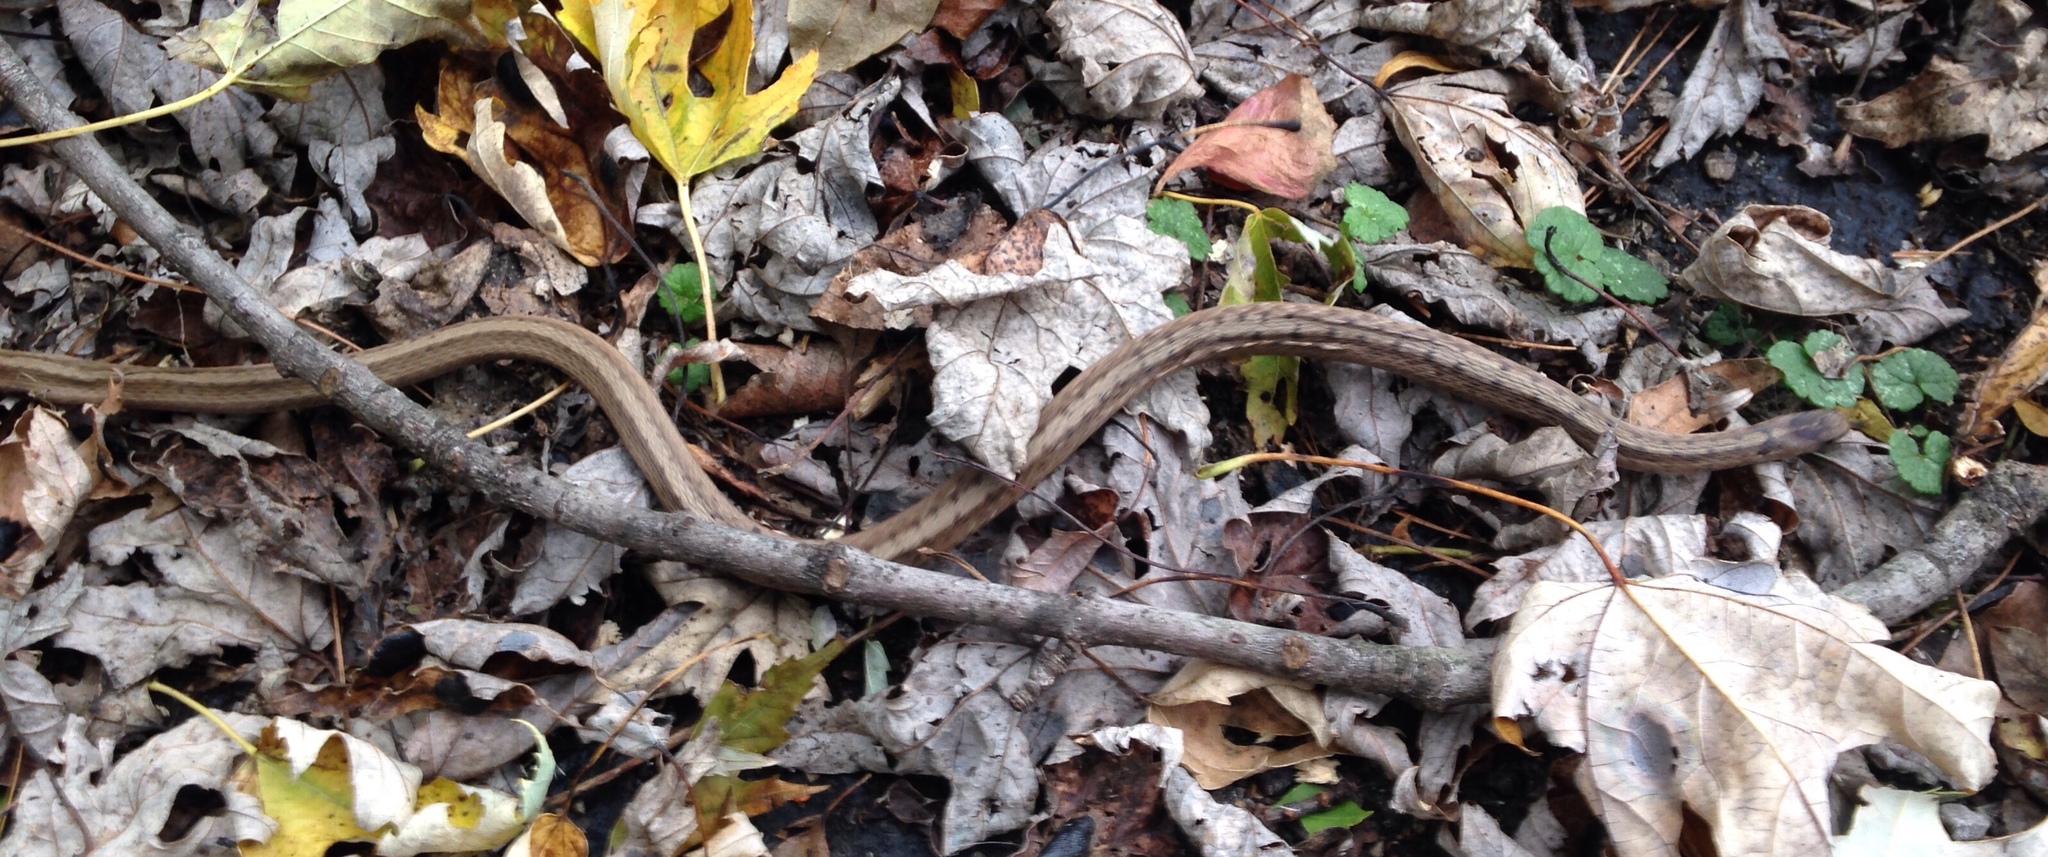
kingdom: Animalia
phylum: Chordata
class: Squamata
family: Colubridae
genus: Storeria
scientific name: Storeria dekayi
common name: (dekay’s) brown snake
